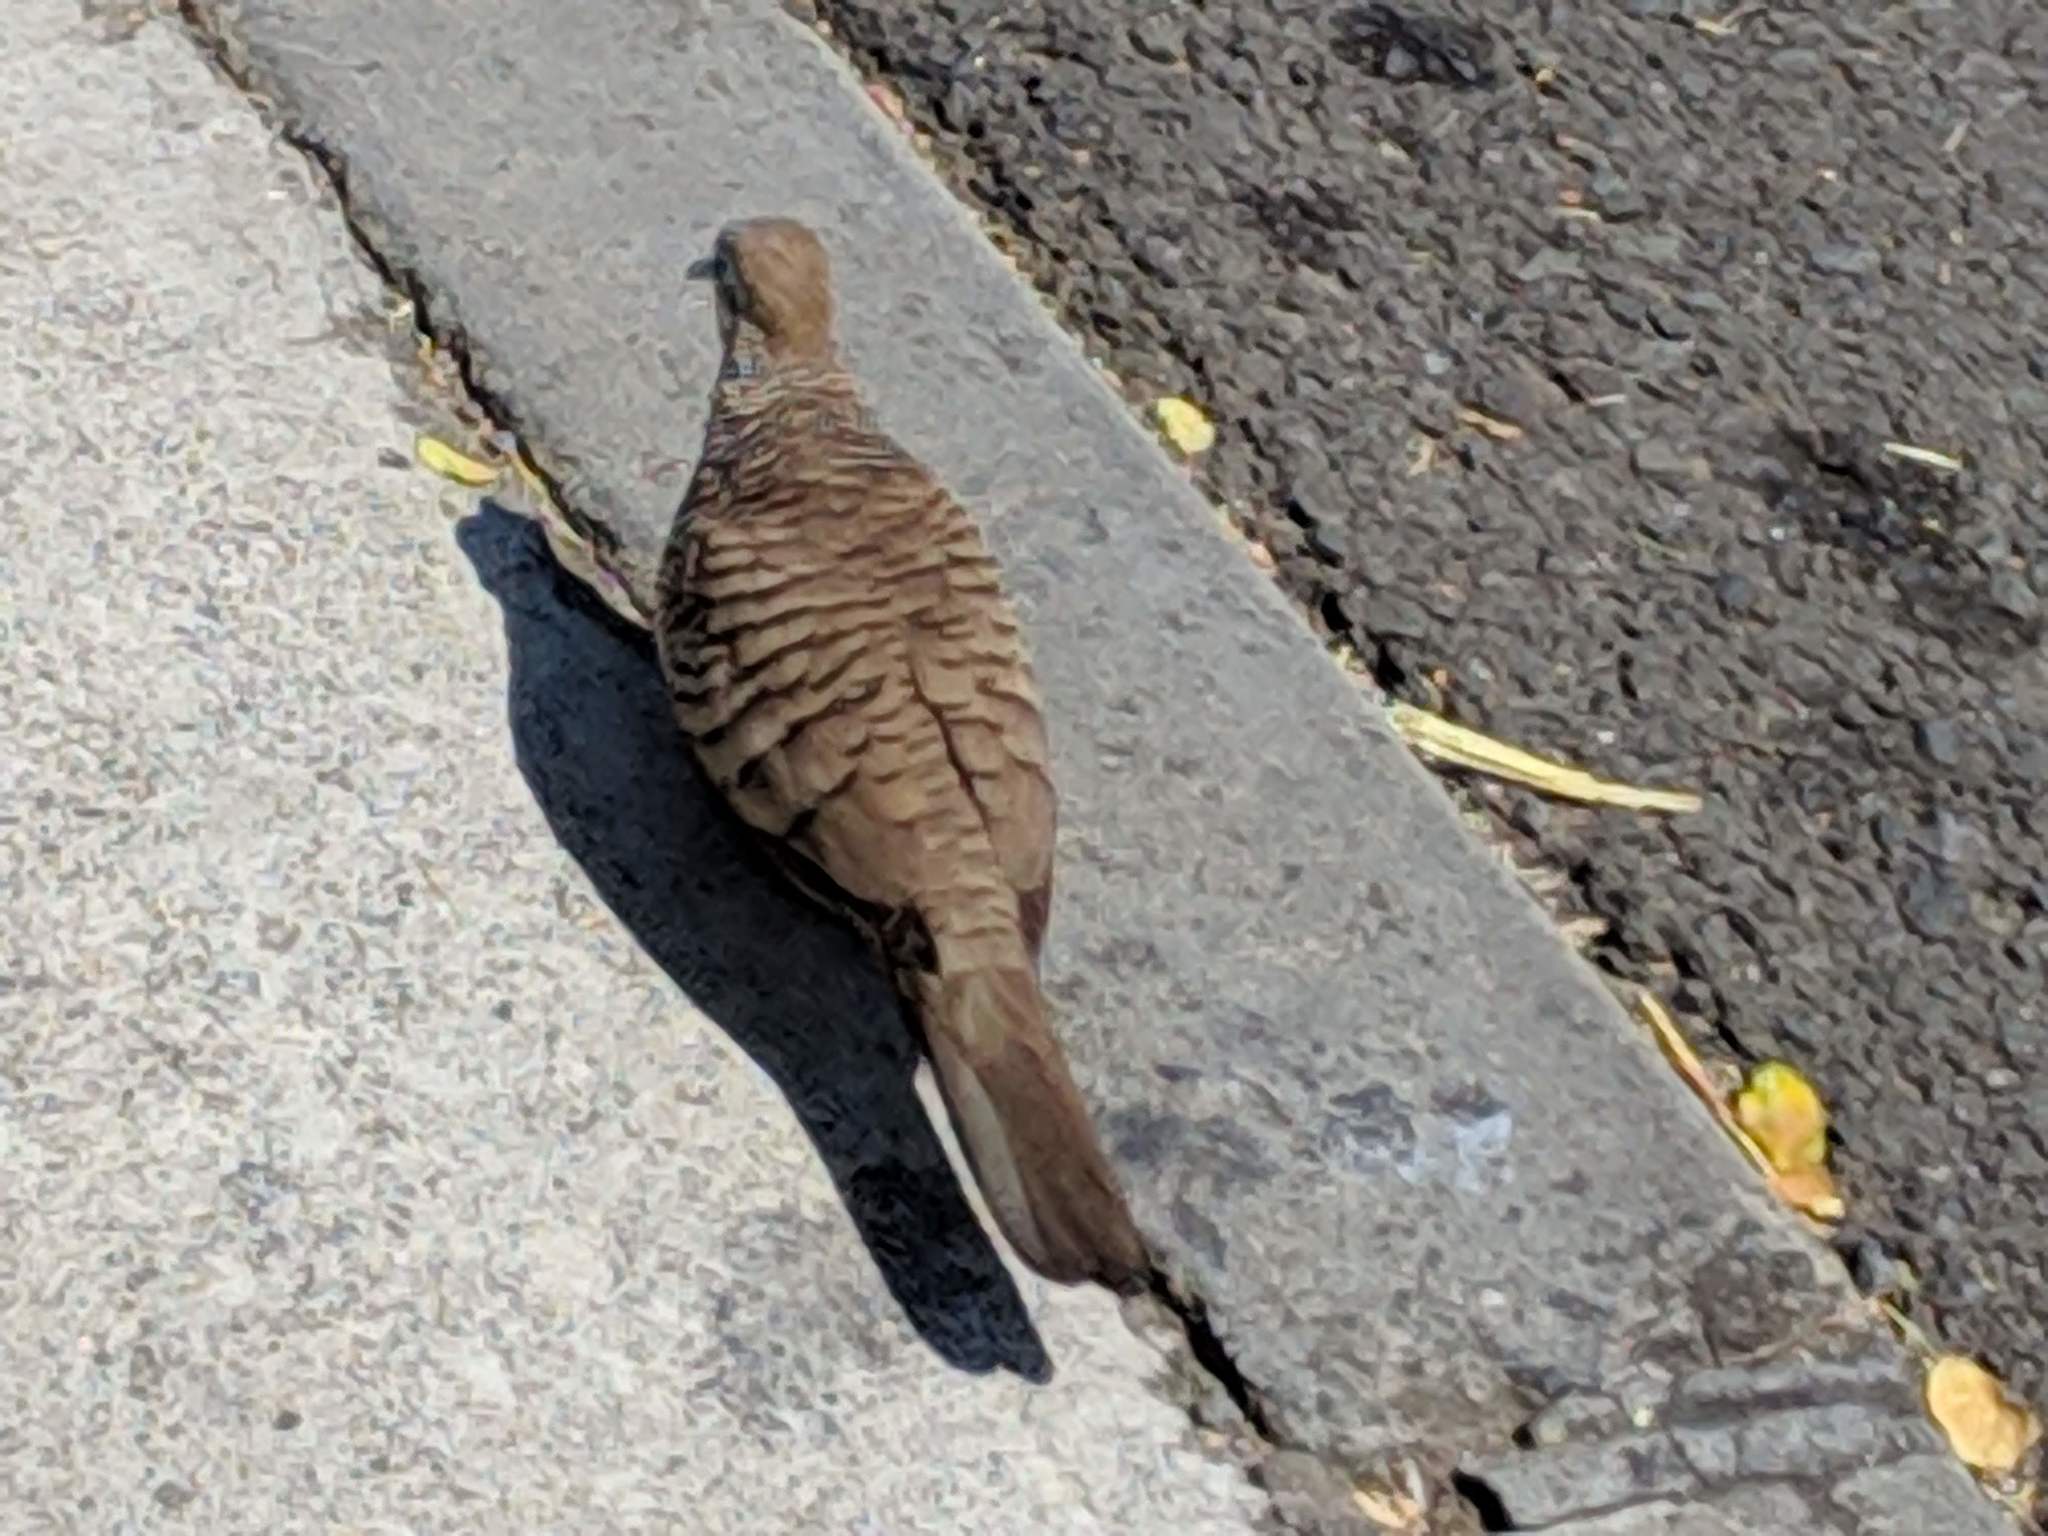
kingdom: Animalia
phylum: Chordata
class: Aves
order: Columbiformes
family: Columbidae
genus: Geopelia
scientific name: Geopelia striata
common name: Zebra dove
